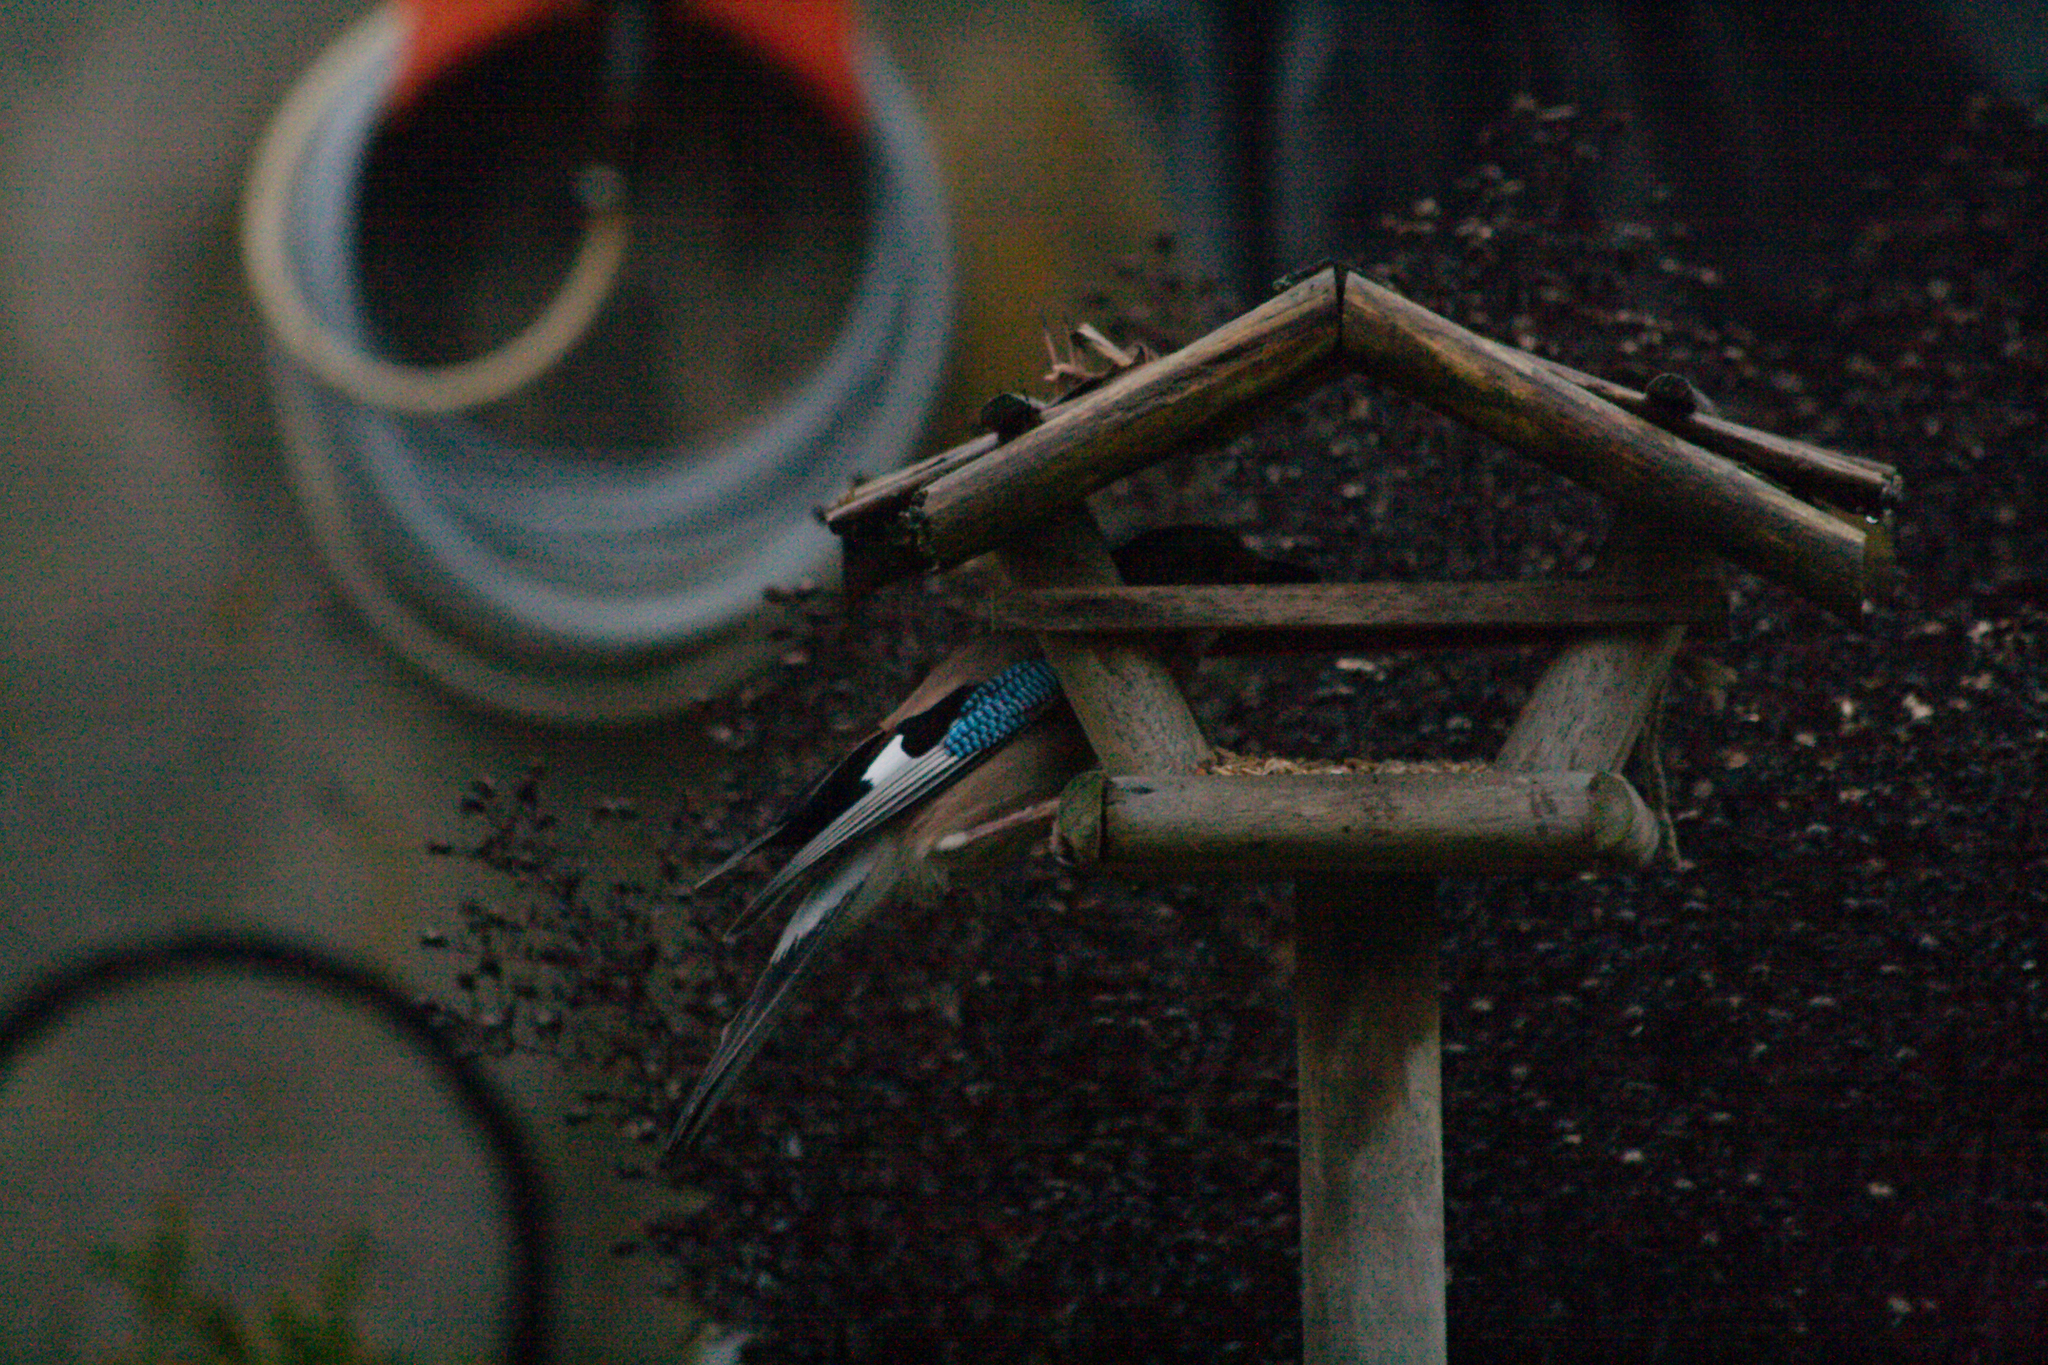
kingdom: Animalia
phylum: Chordata
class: Aves
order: Passeriformes
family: Corvidae
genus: Garrulus
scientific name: Garrulus glandarius
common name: Eurasian jay
